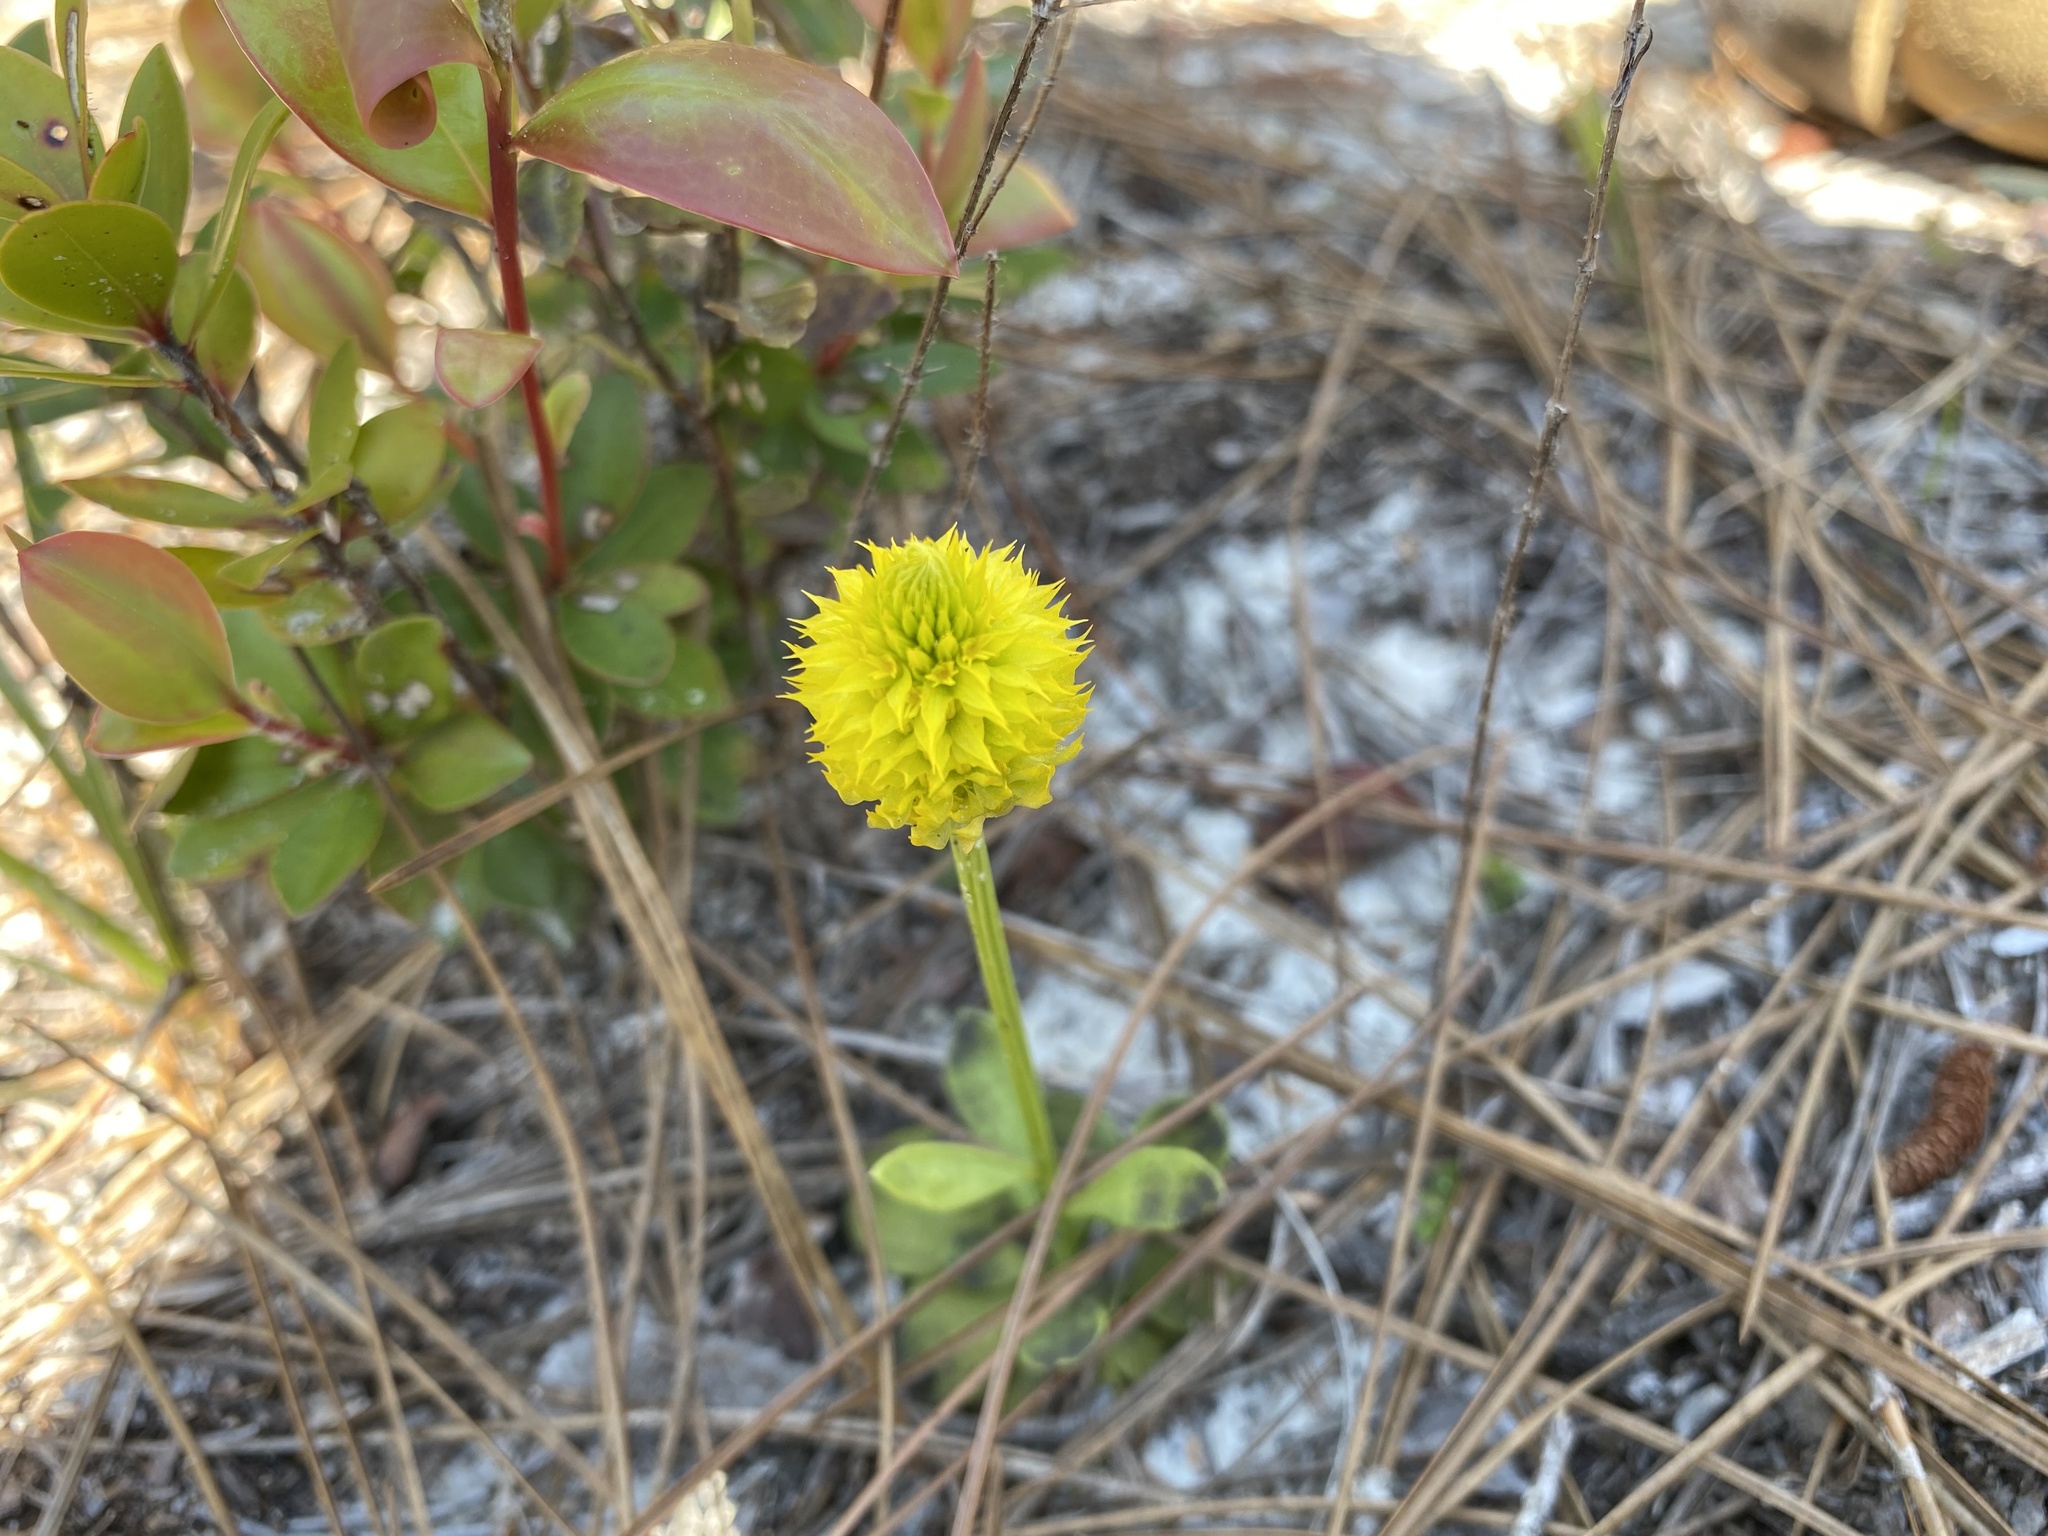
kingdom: Plantae
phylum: Tracheophyta
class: Magnoliopsida
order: Fabales
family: Polygalaceae
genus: Polygala
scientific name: Polygala nana
